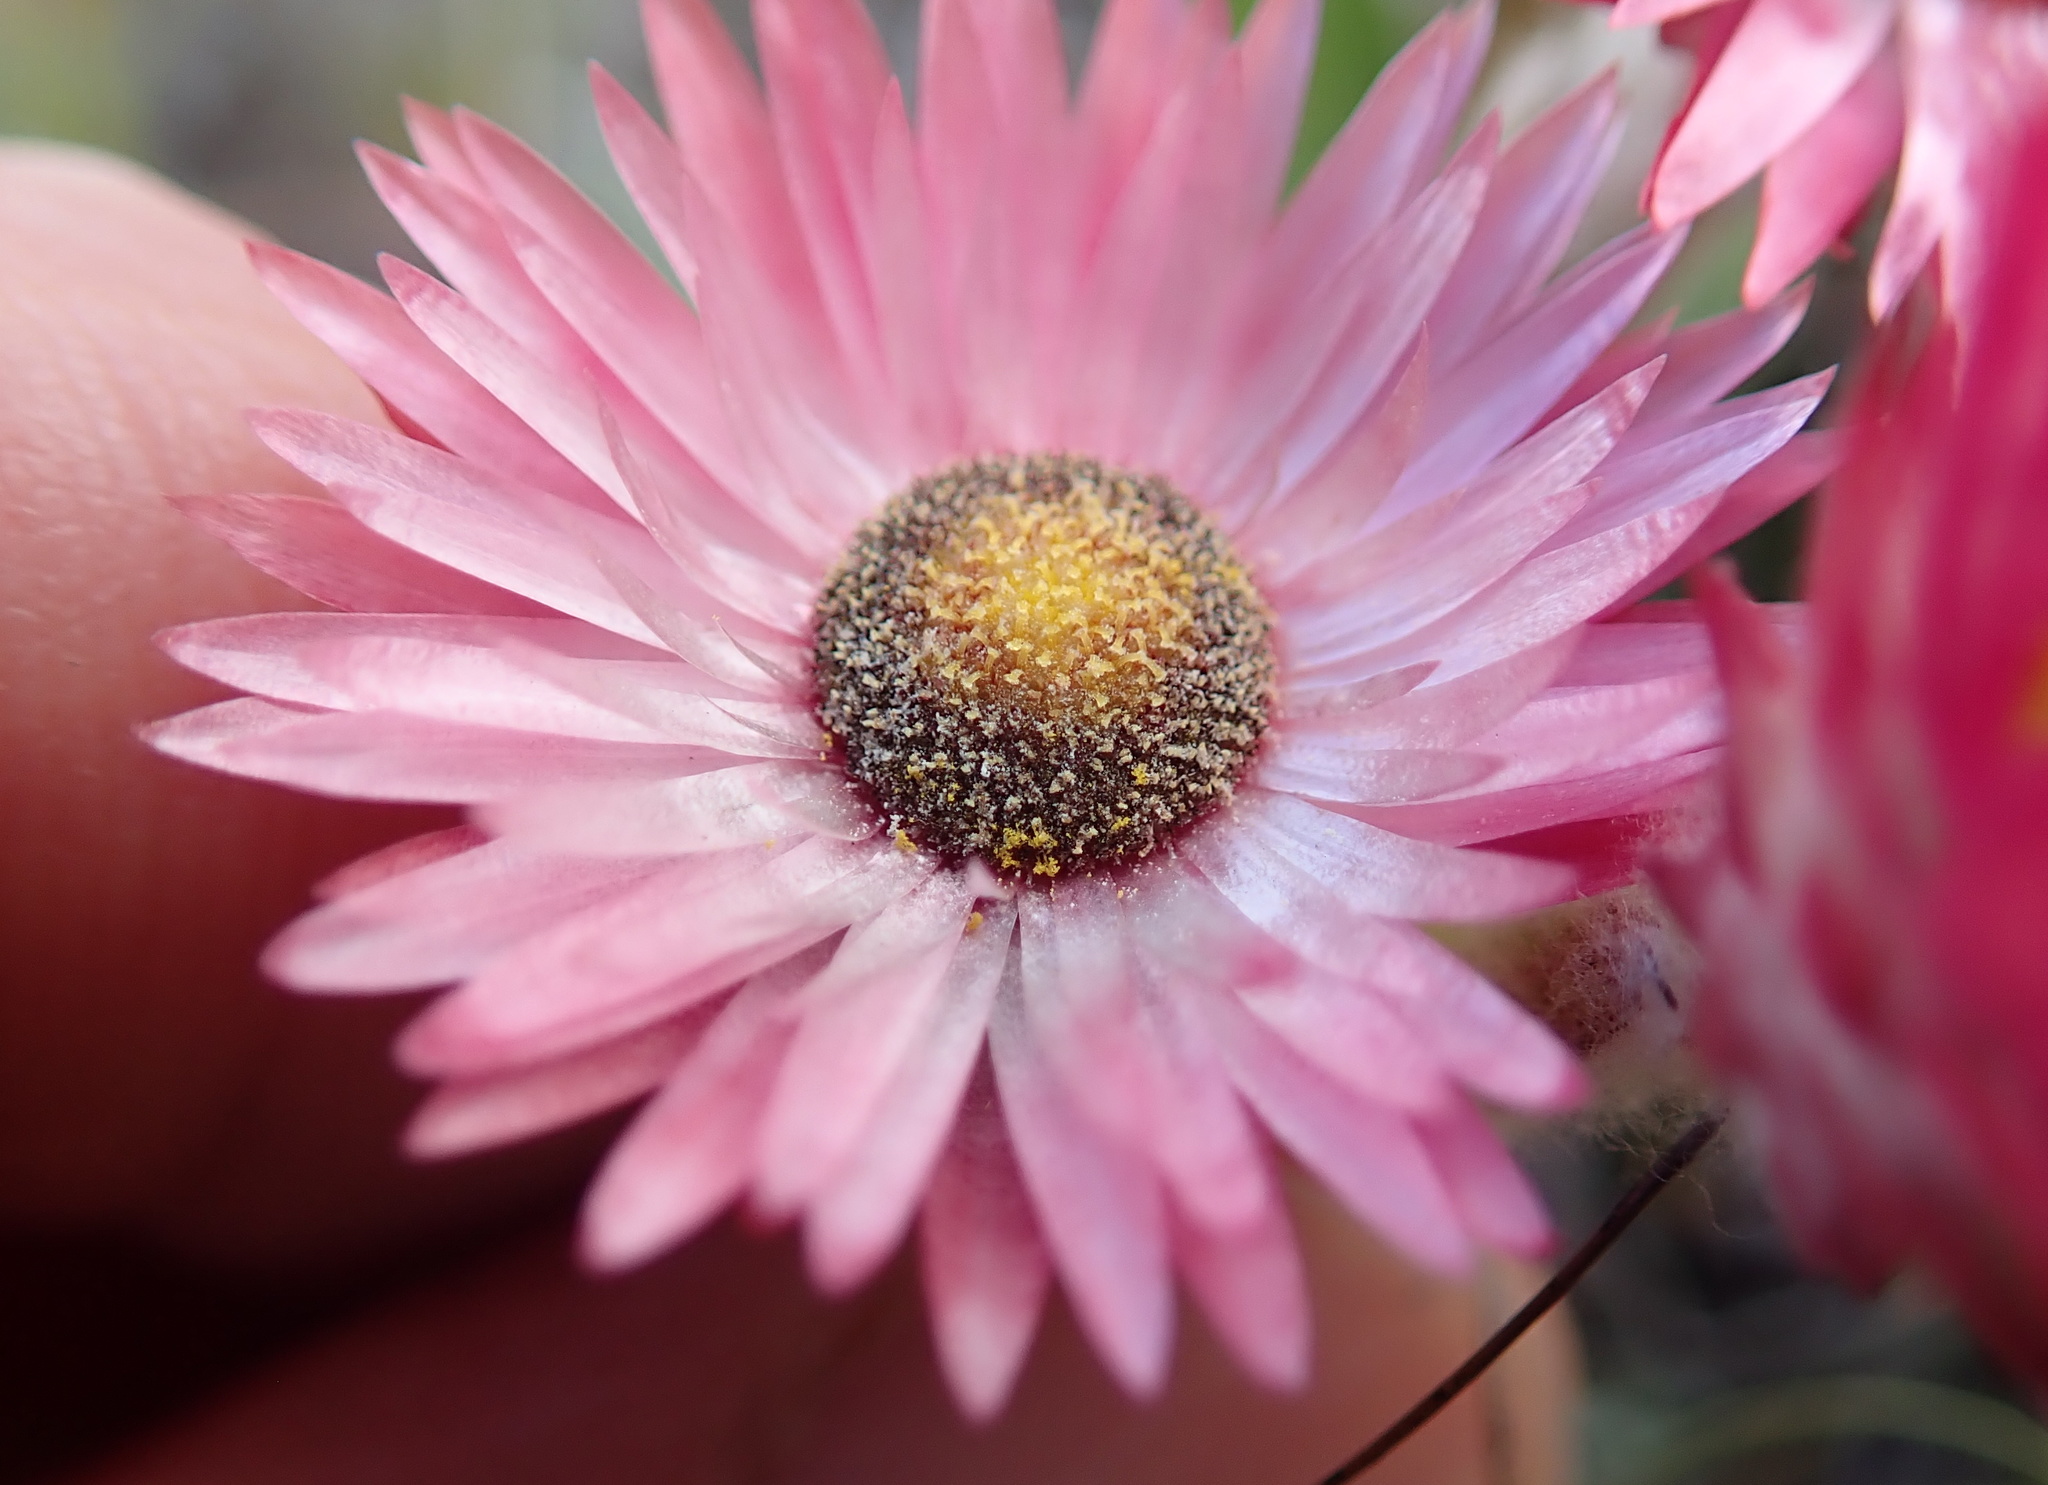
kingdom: Plantae
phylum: Tracheophyta
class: Magnoliopsida
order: Asterales
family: Asteraceae
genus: Helichrysum
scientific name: Helichrysum adenocarpum
